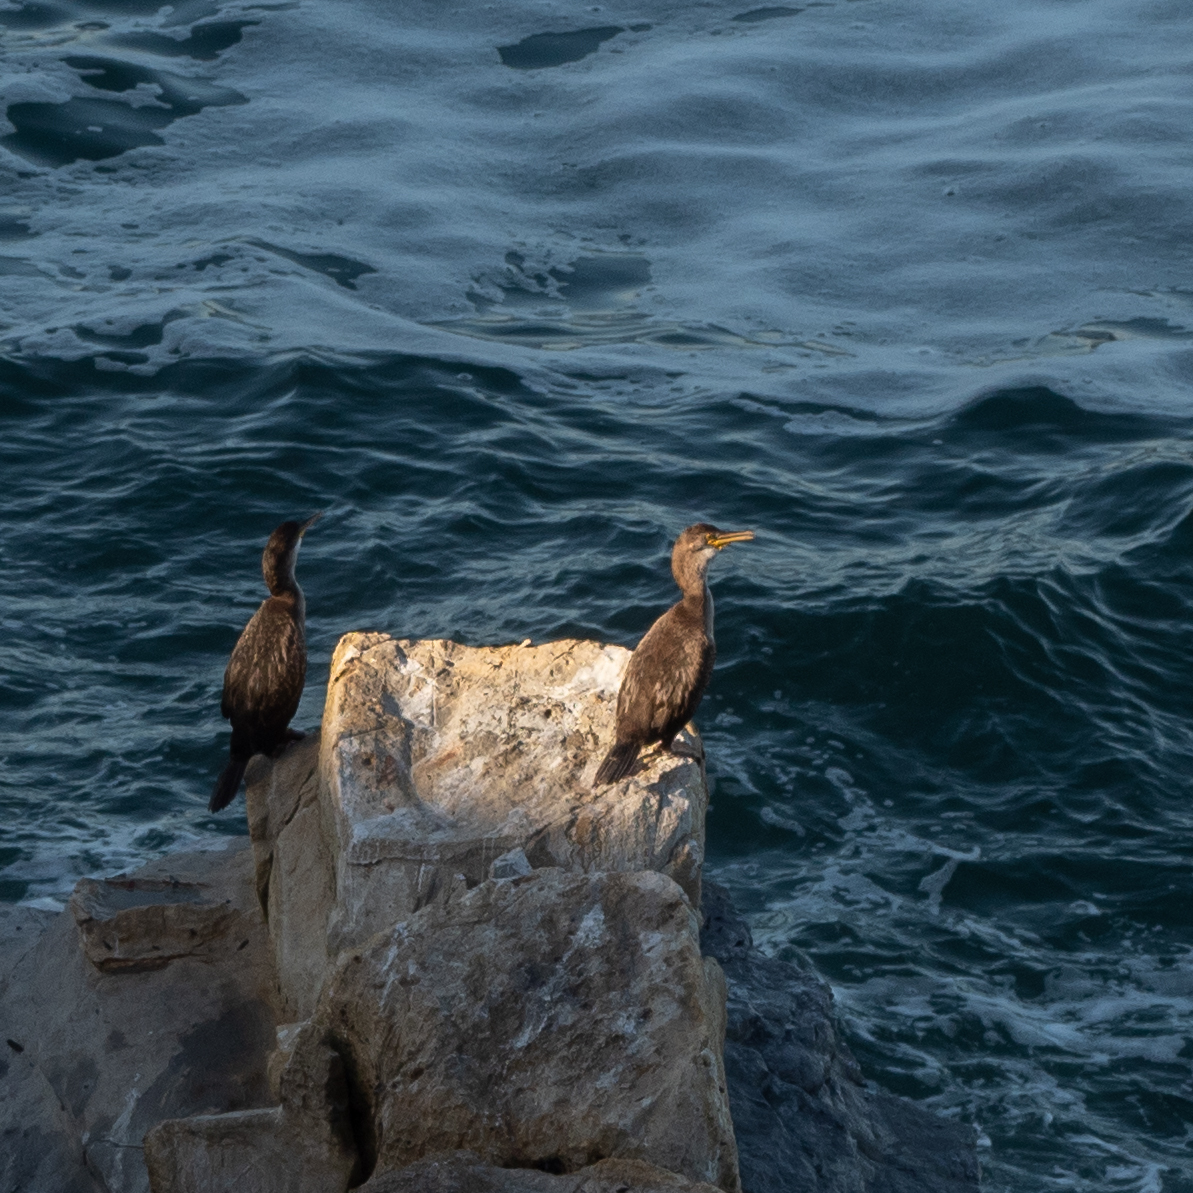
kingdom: Animalia
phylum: Chordata
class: Aves
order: Suliformes
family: Phalacrocoracidae
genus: Phalacrocorax
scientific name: Phalacrocorax carbo
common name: Great cormorant
